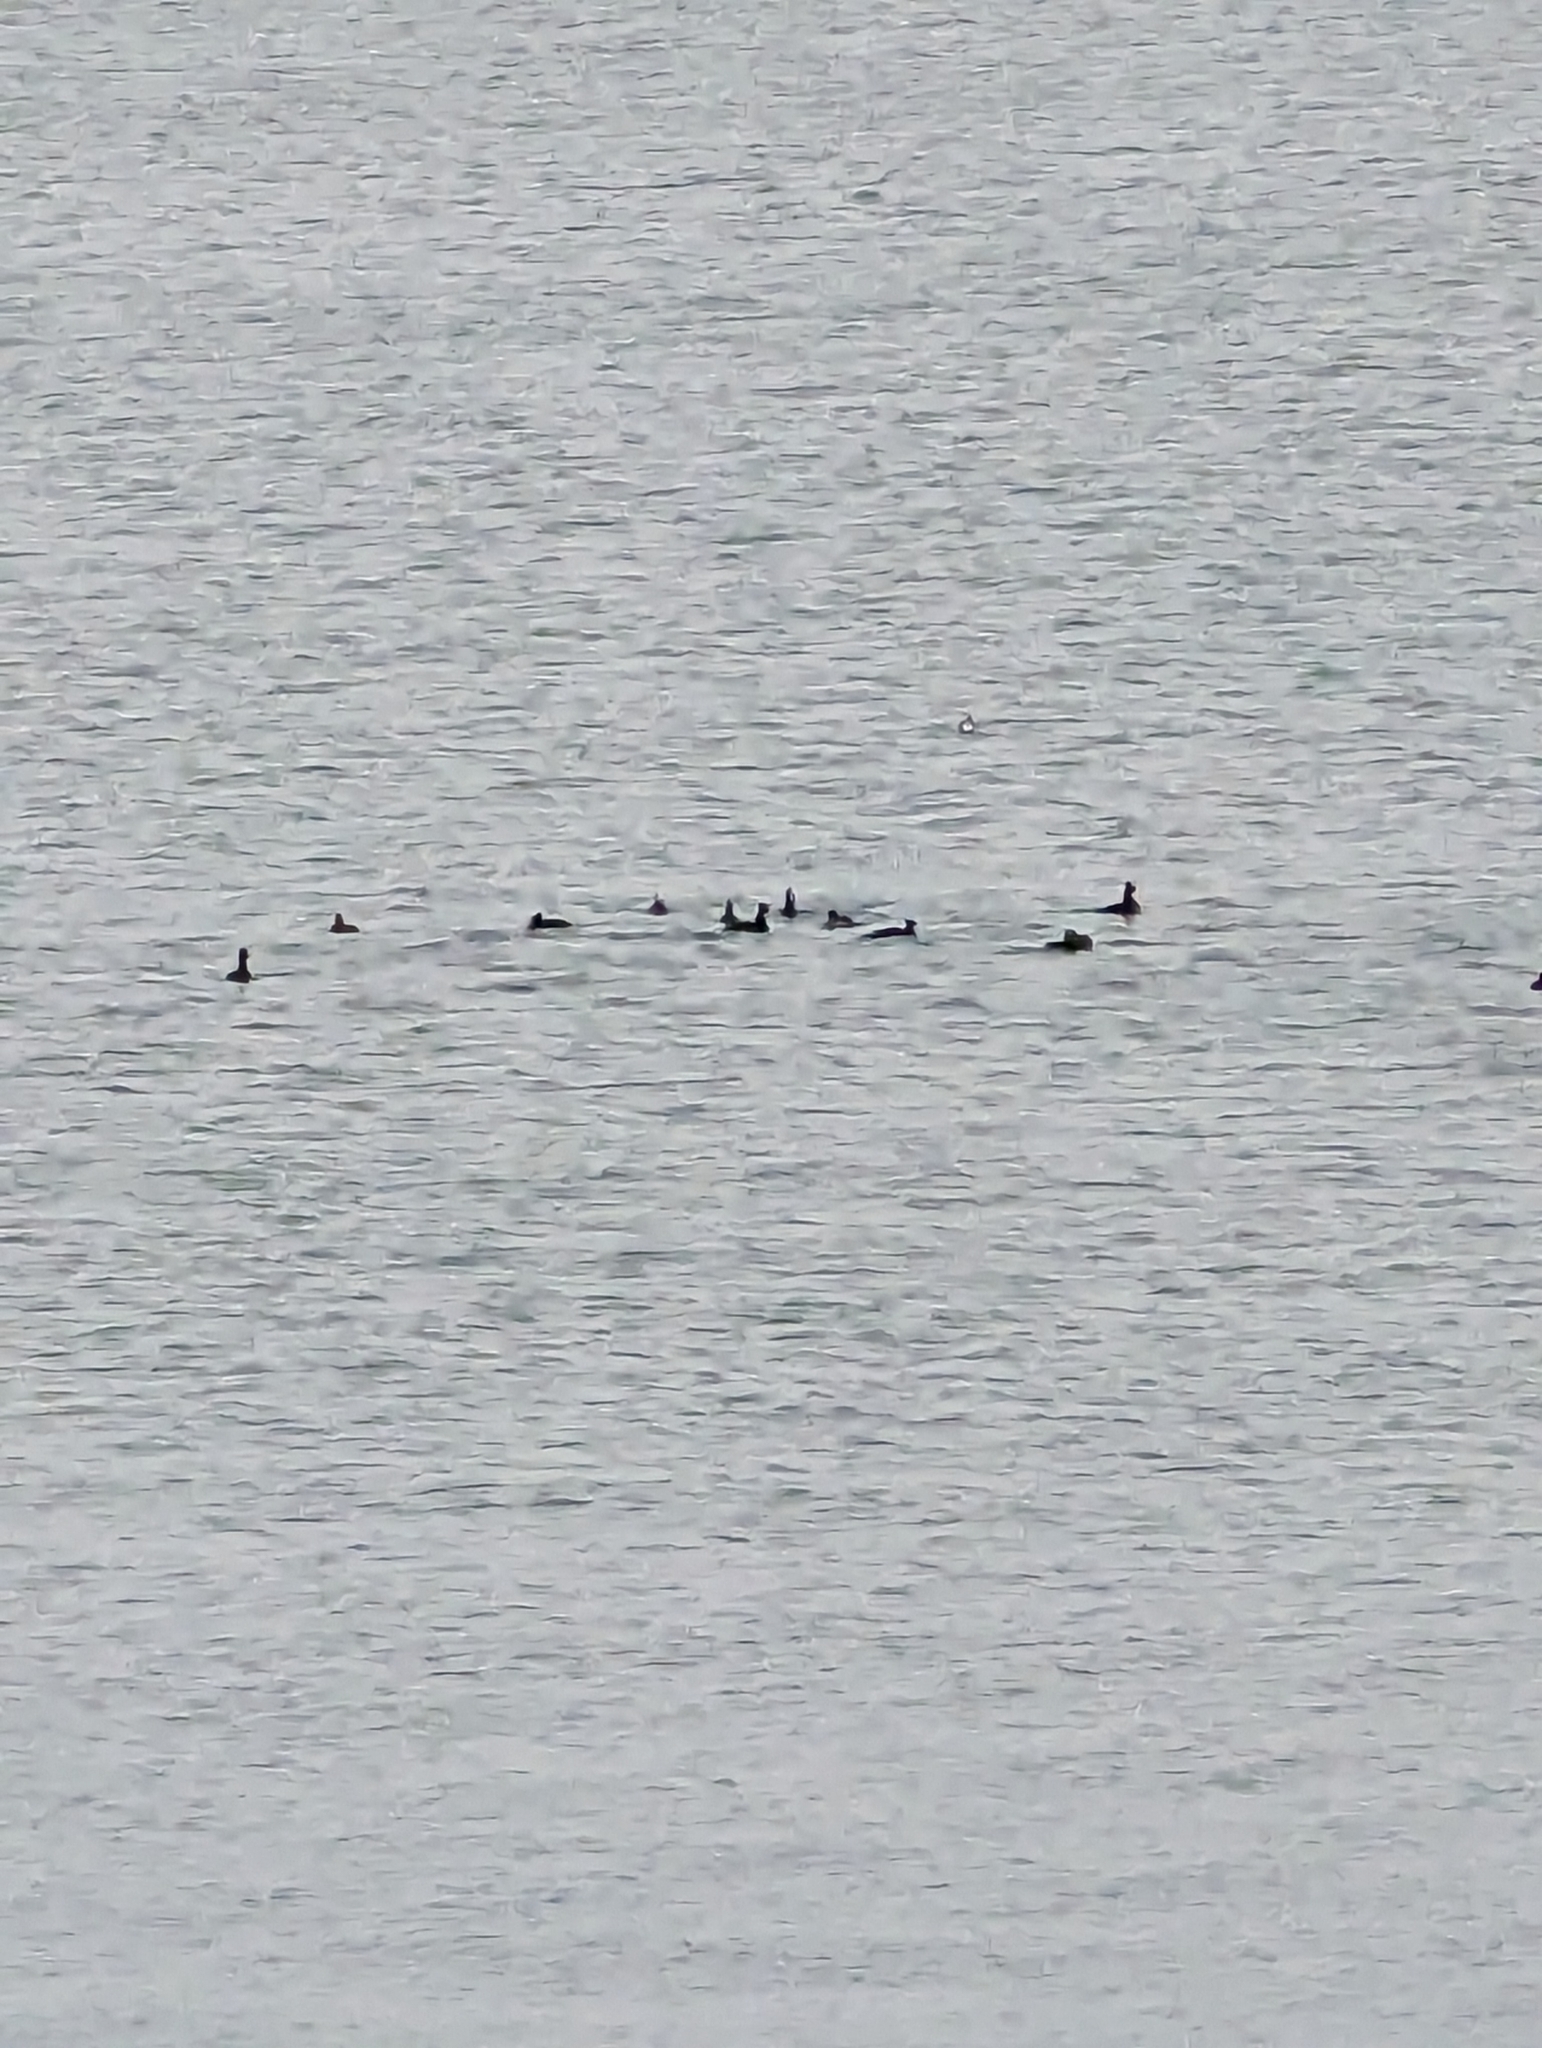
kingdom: Animalia
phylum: Chordata
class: Aves
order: Anseriformes
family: Anatidae
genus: Melanitta
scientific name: Melanitta perspicillata
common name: Surf scoter
